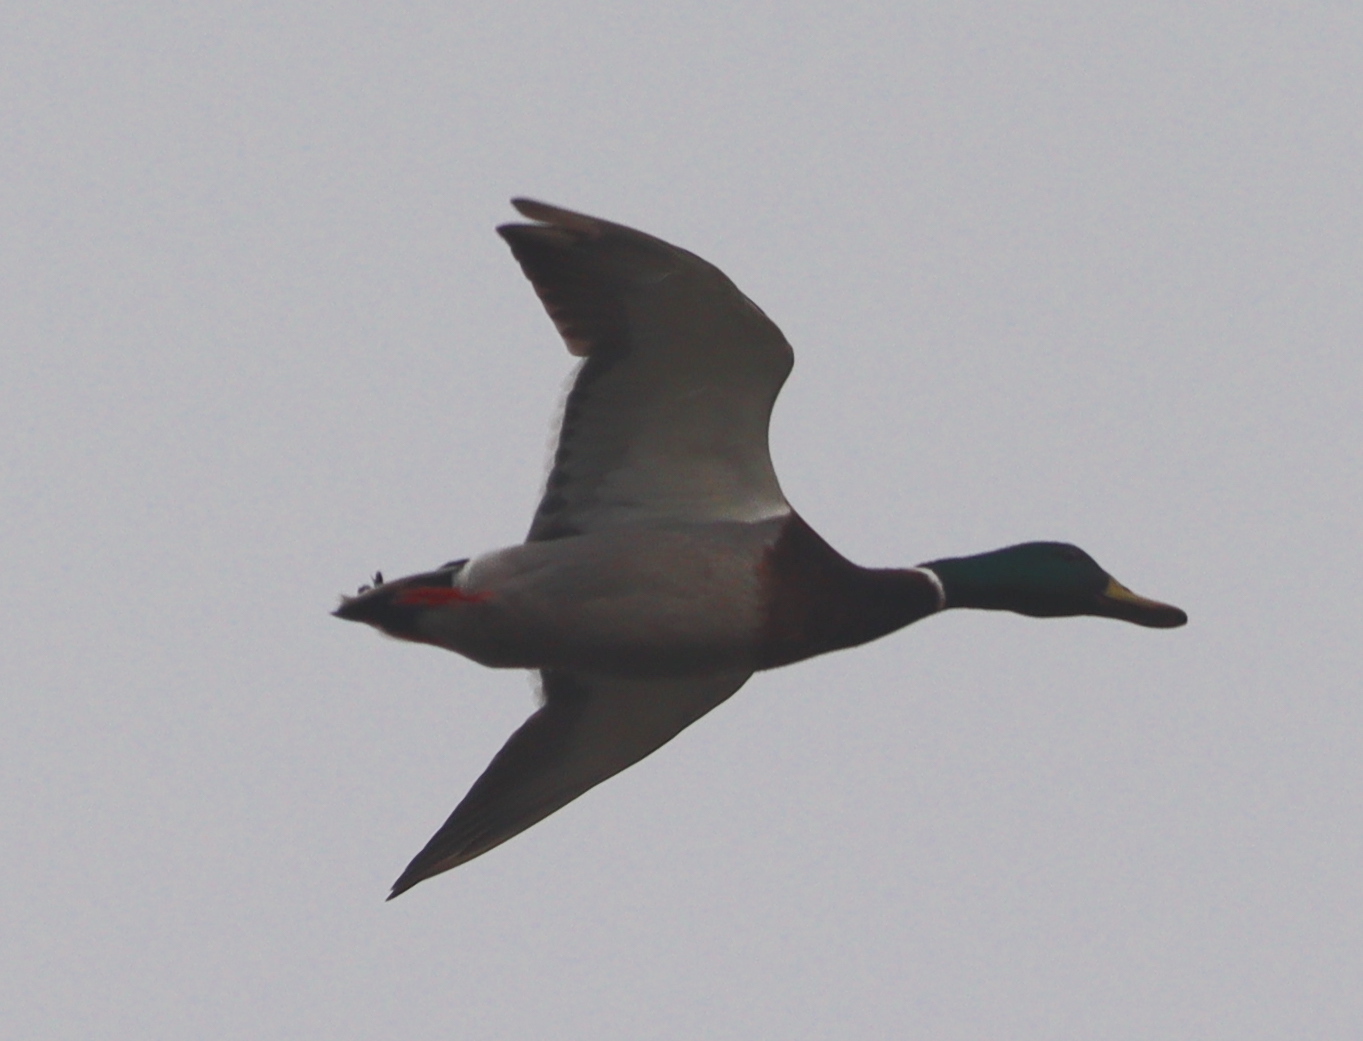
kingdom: Animalia
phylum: Chordata
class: Aves
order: Anseriformes
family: Anatidae
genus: Anas
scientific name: Anas platyrhynchos
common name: Mallard
